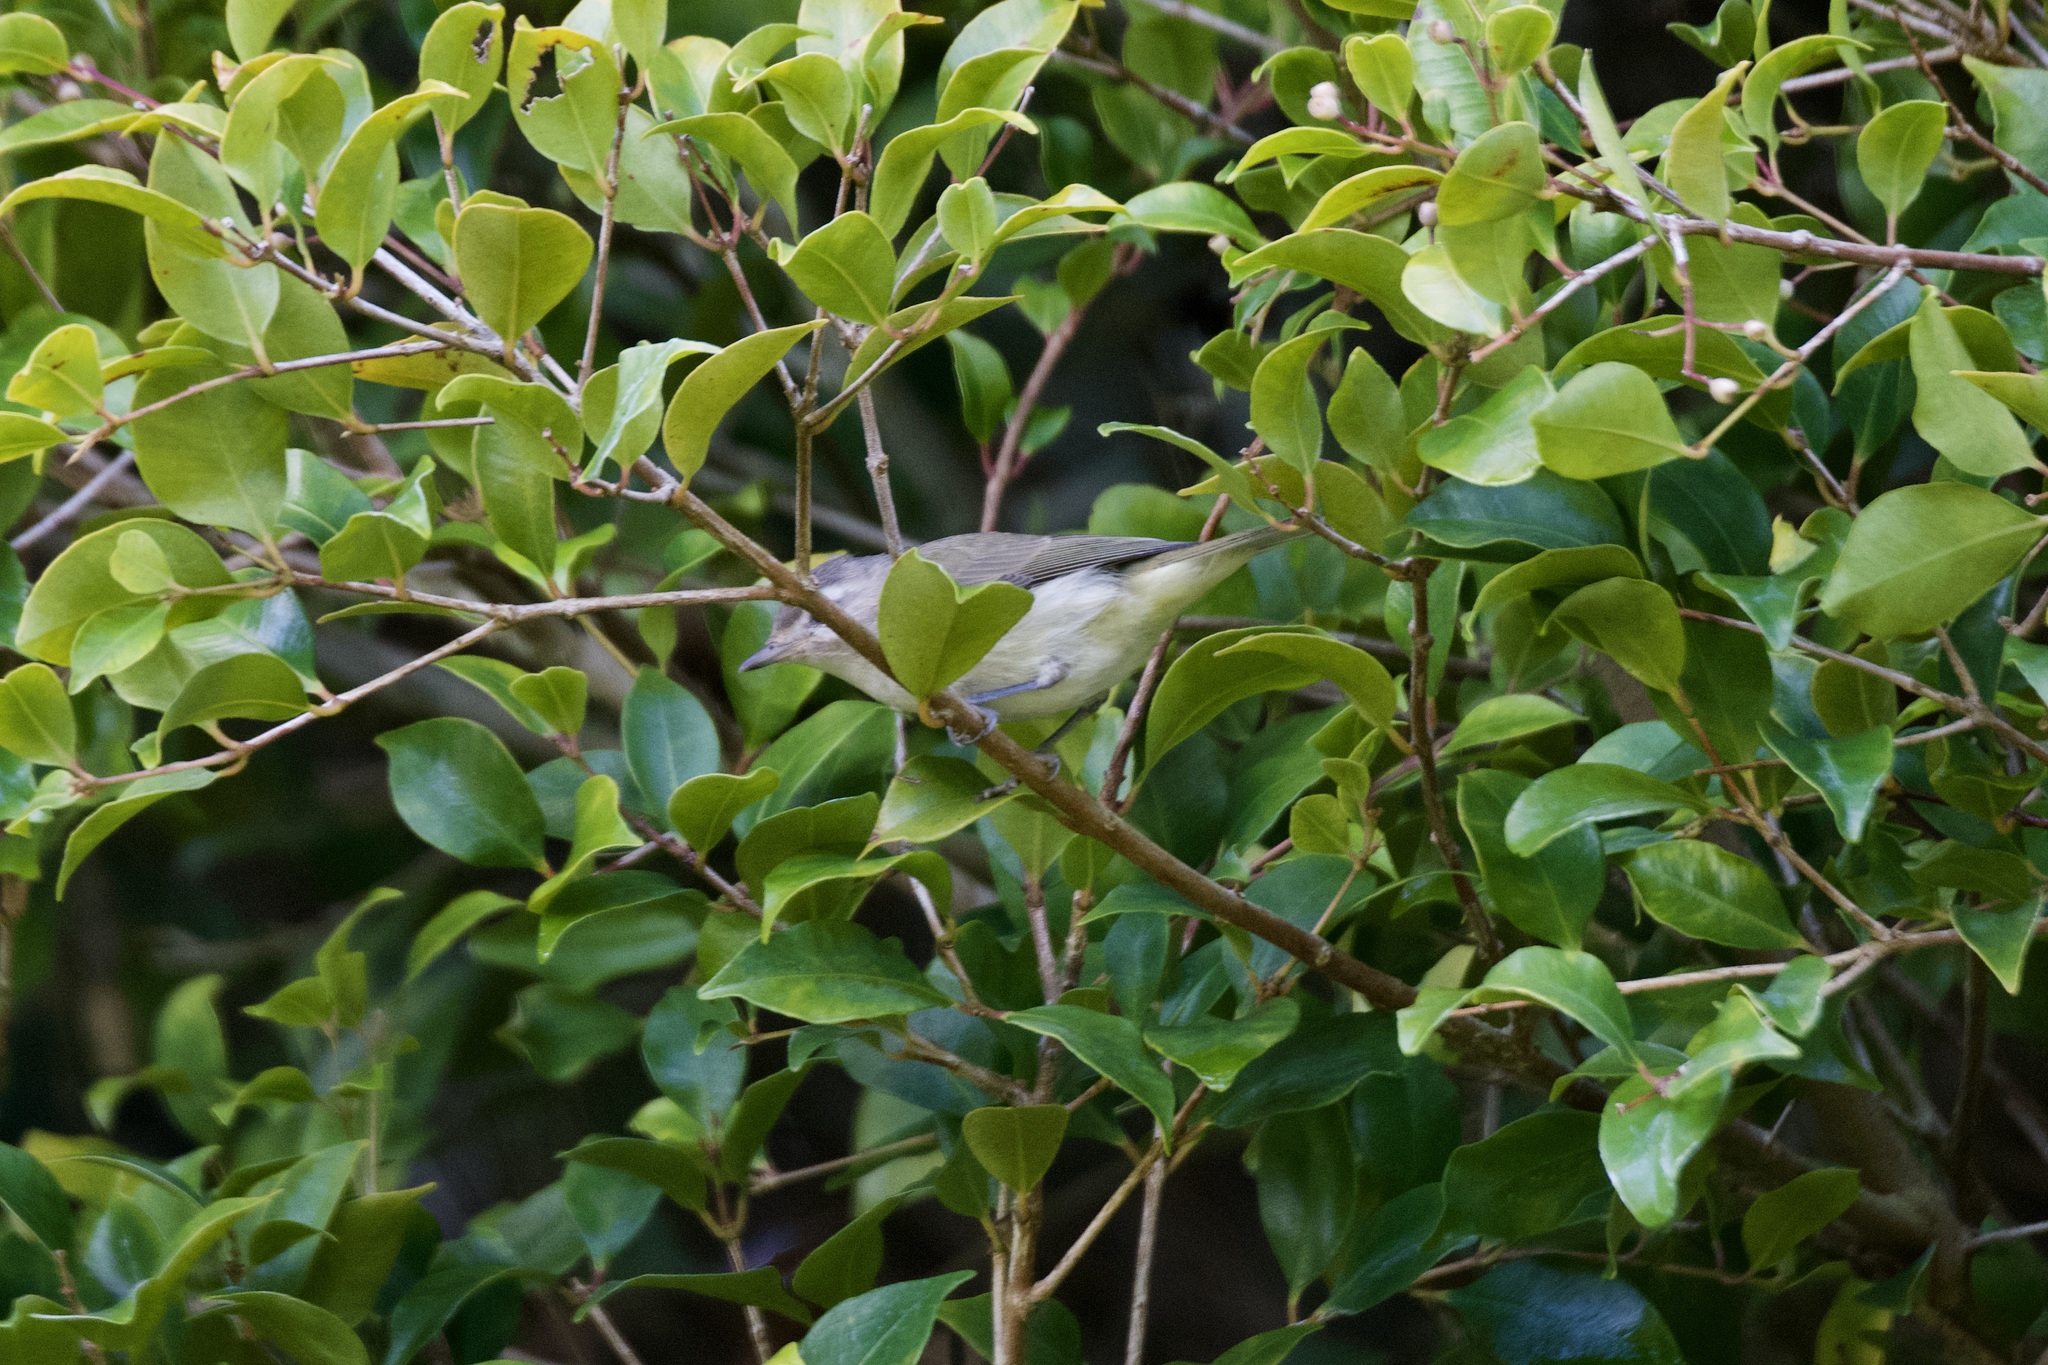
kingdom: Animalia
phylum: Chordata
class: Aves
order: Passeriformes
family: Vireonidae
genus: Vireo
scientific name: Vireo gilvus
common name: Warbling vireo
